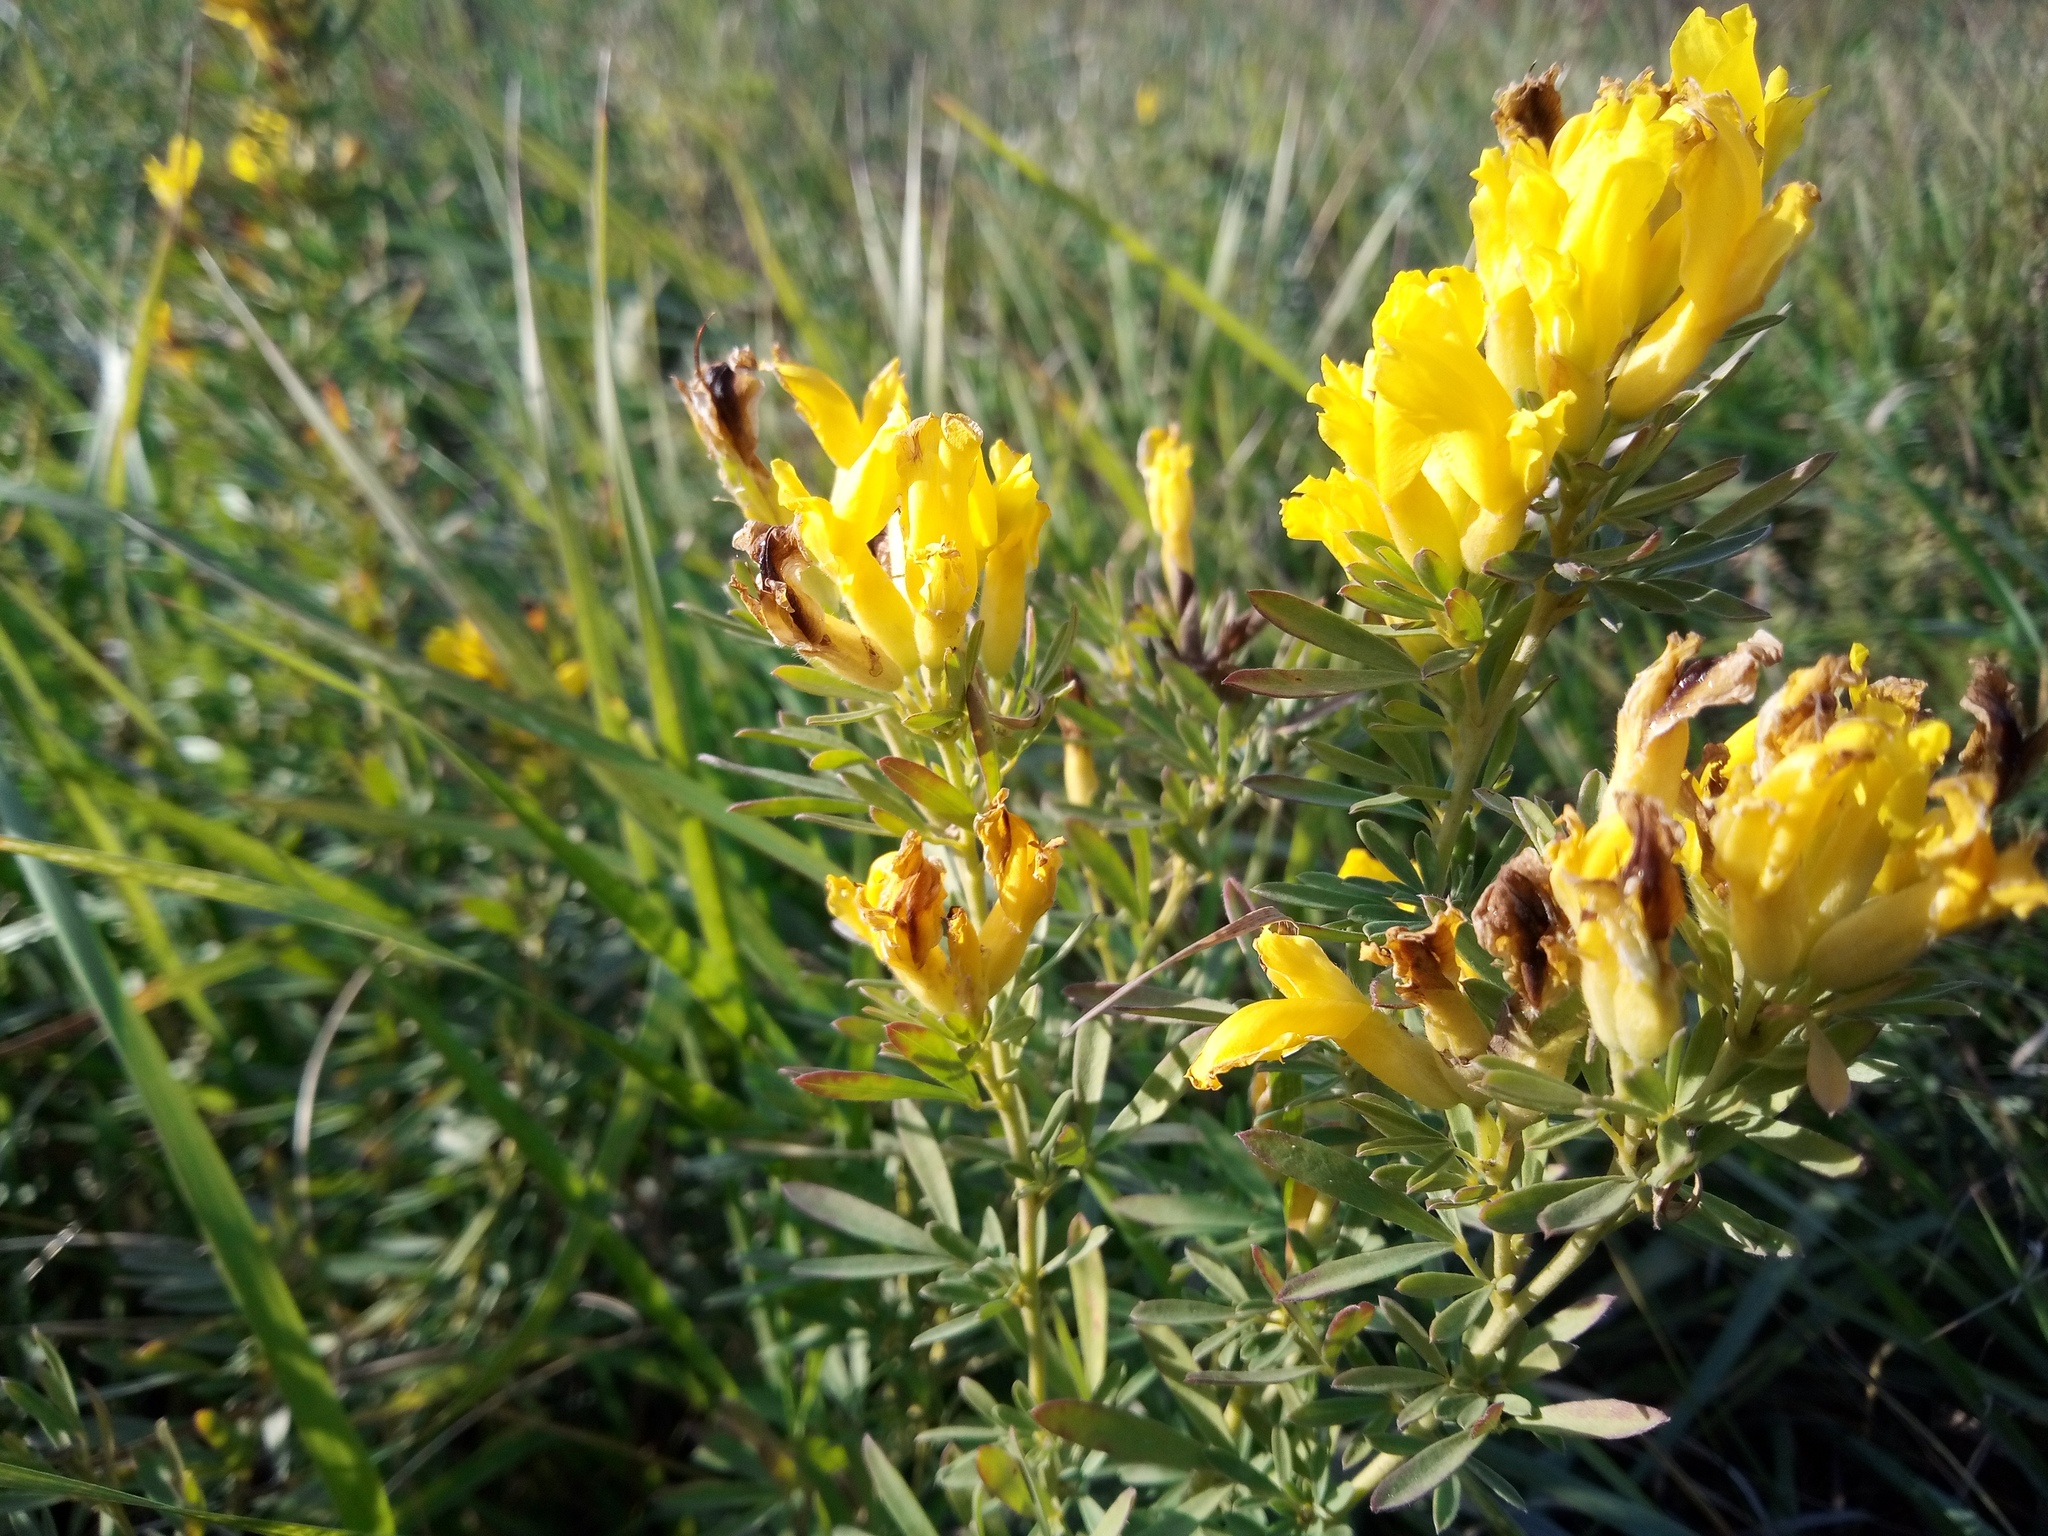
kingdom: Plantae
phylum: Tracheophyta
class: Magnoliopsida
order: Fabales
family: Fabaceae
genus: Chamaecytisus
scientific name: Chamaecytisus austriacus
